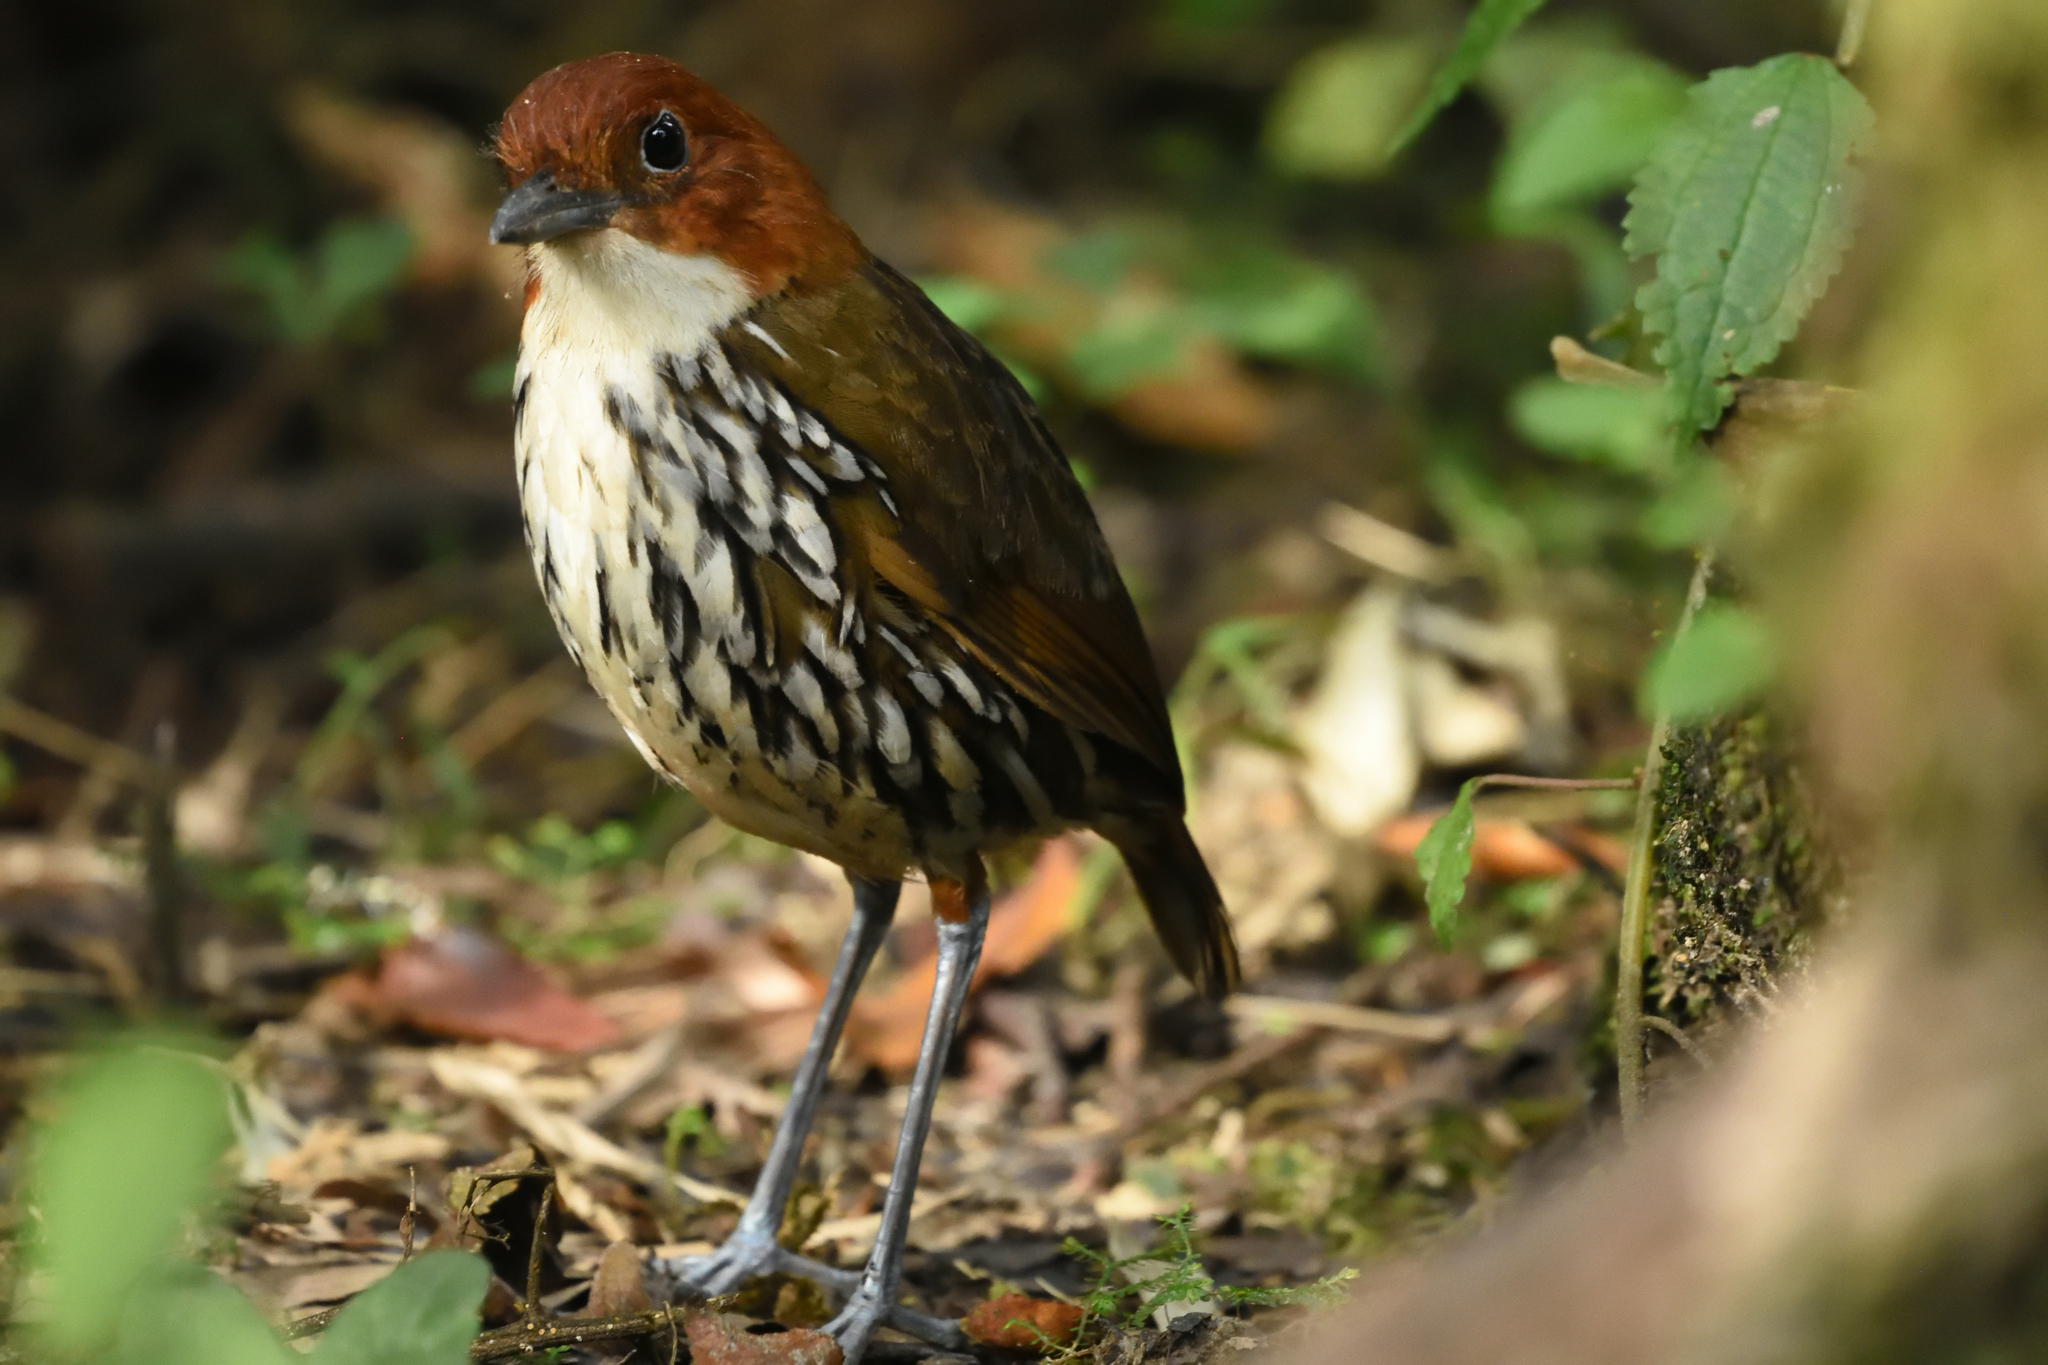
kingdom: Animalia
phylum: Chordata
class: Aves
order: Passeriformes
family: Grallariidae
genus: Grallaria
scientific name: Grallaria ruficapilla
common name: Chestnut-crowned antpitta
